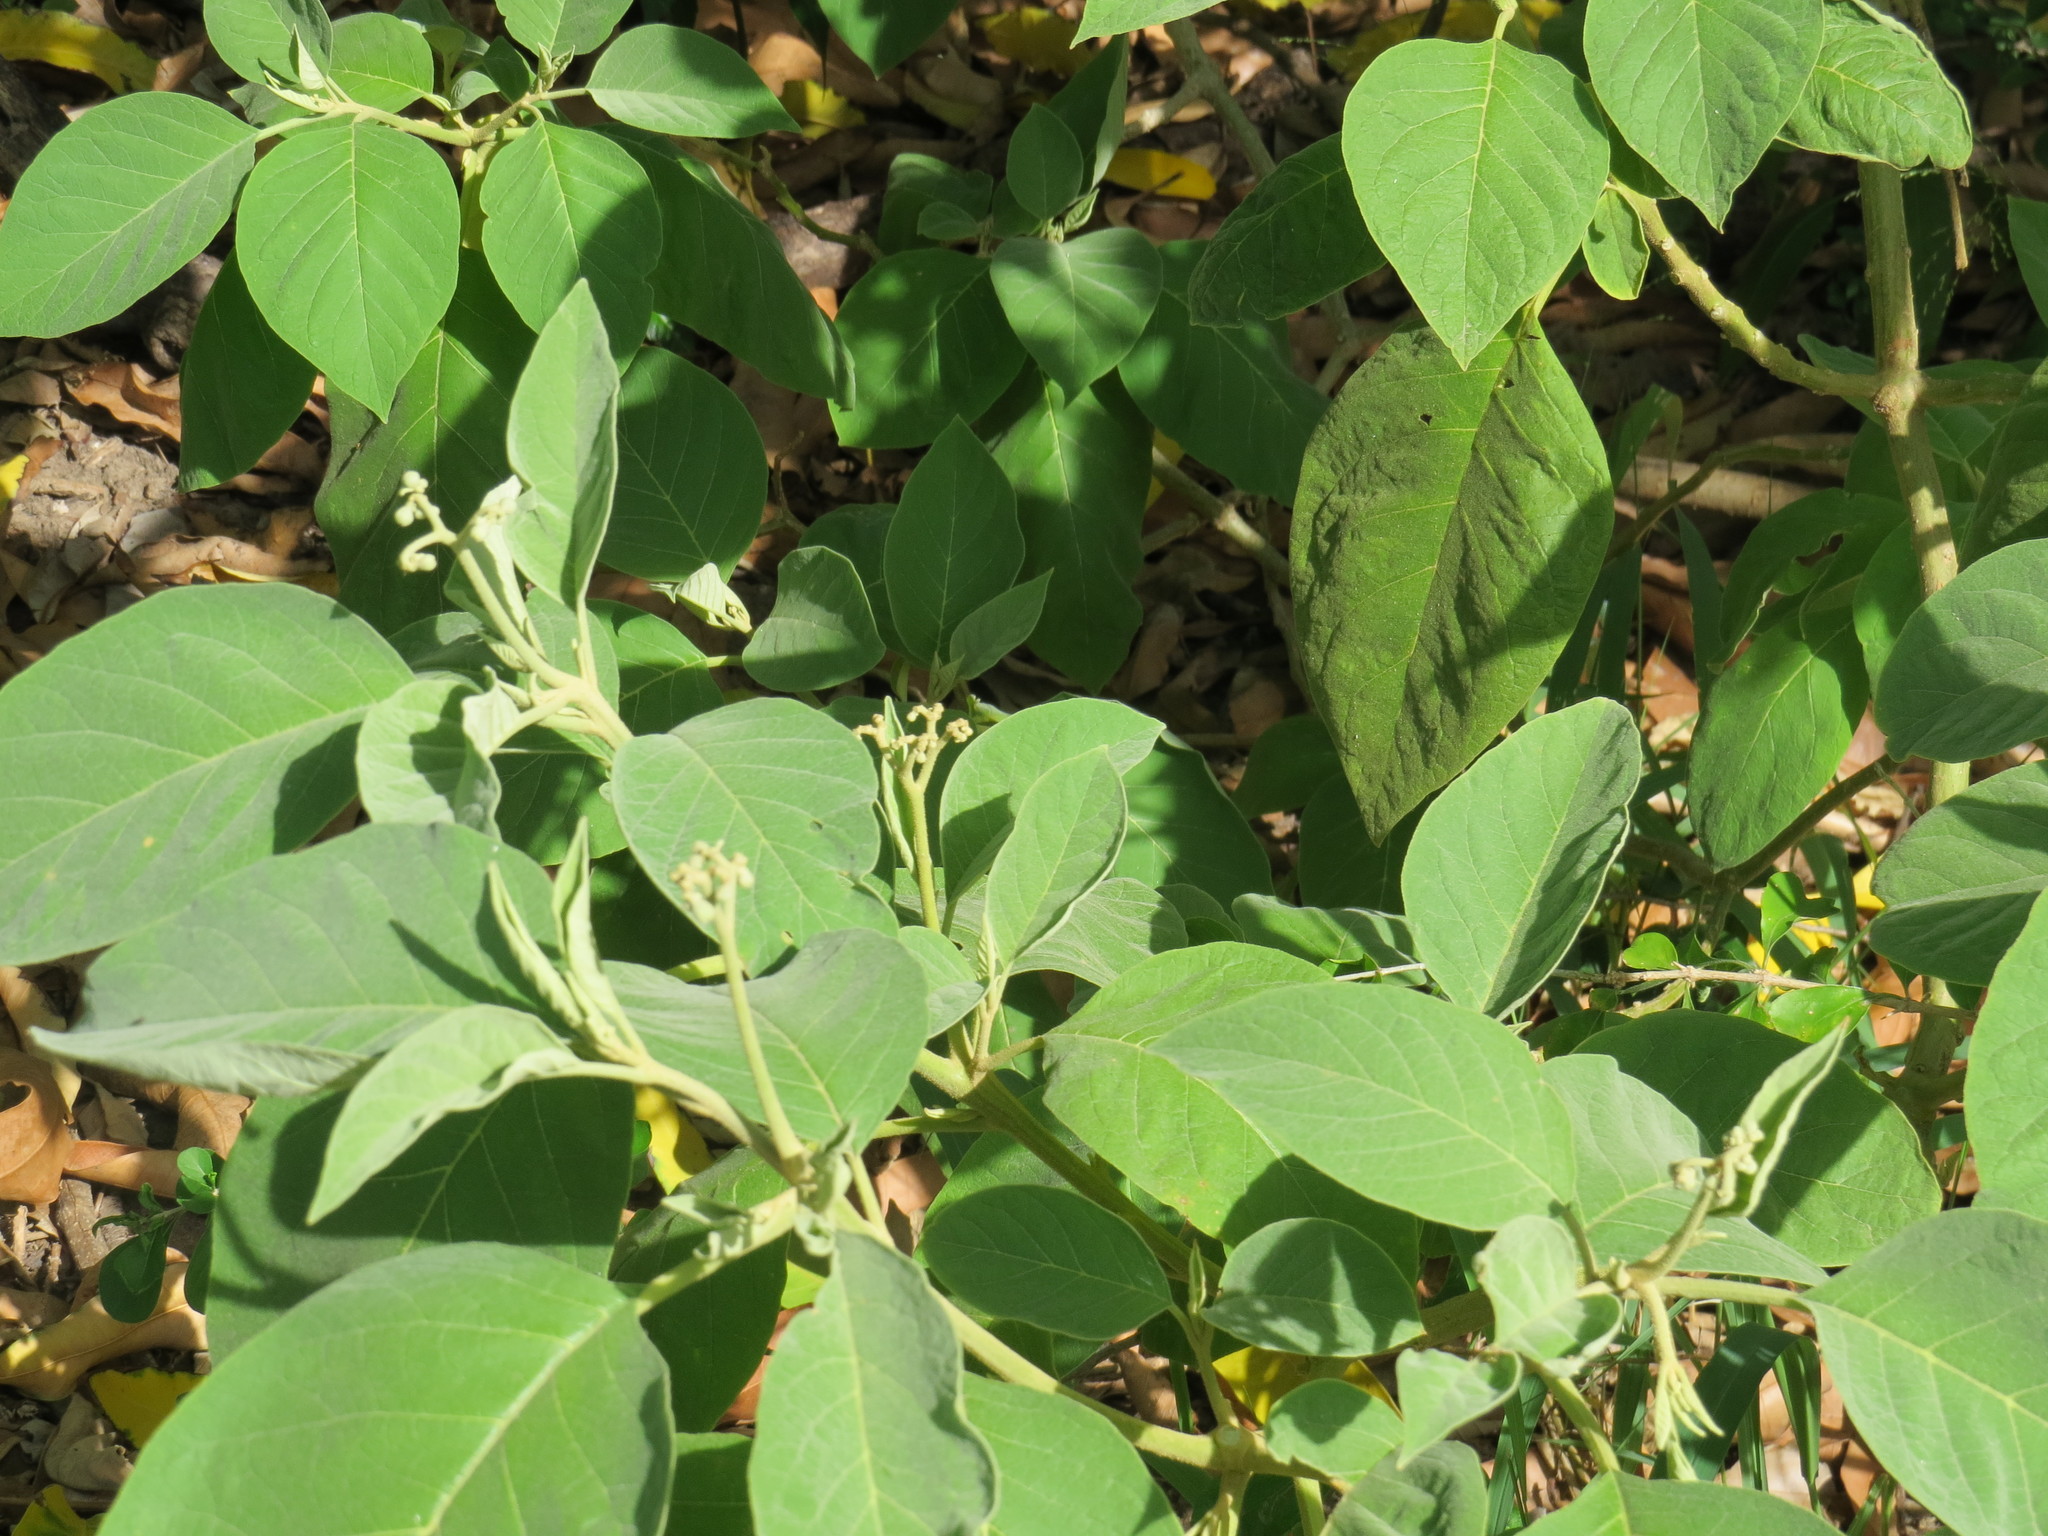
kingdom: Plantae
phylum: Tracheophyta
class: Magnoliopsida
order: Solanales
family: Solanaceae
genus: Solanum
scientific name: Solanum erianthum
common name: Tobacco-tree
